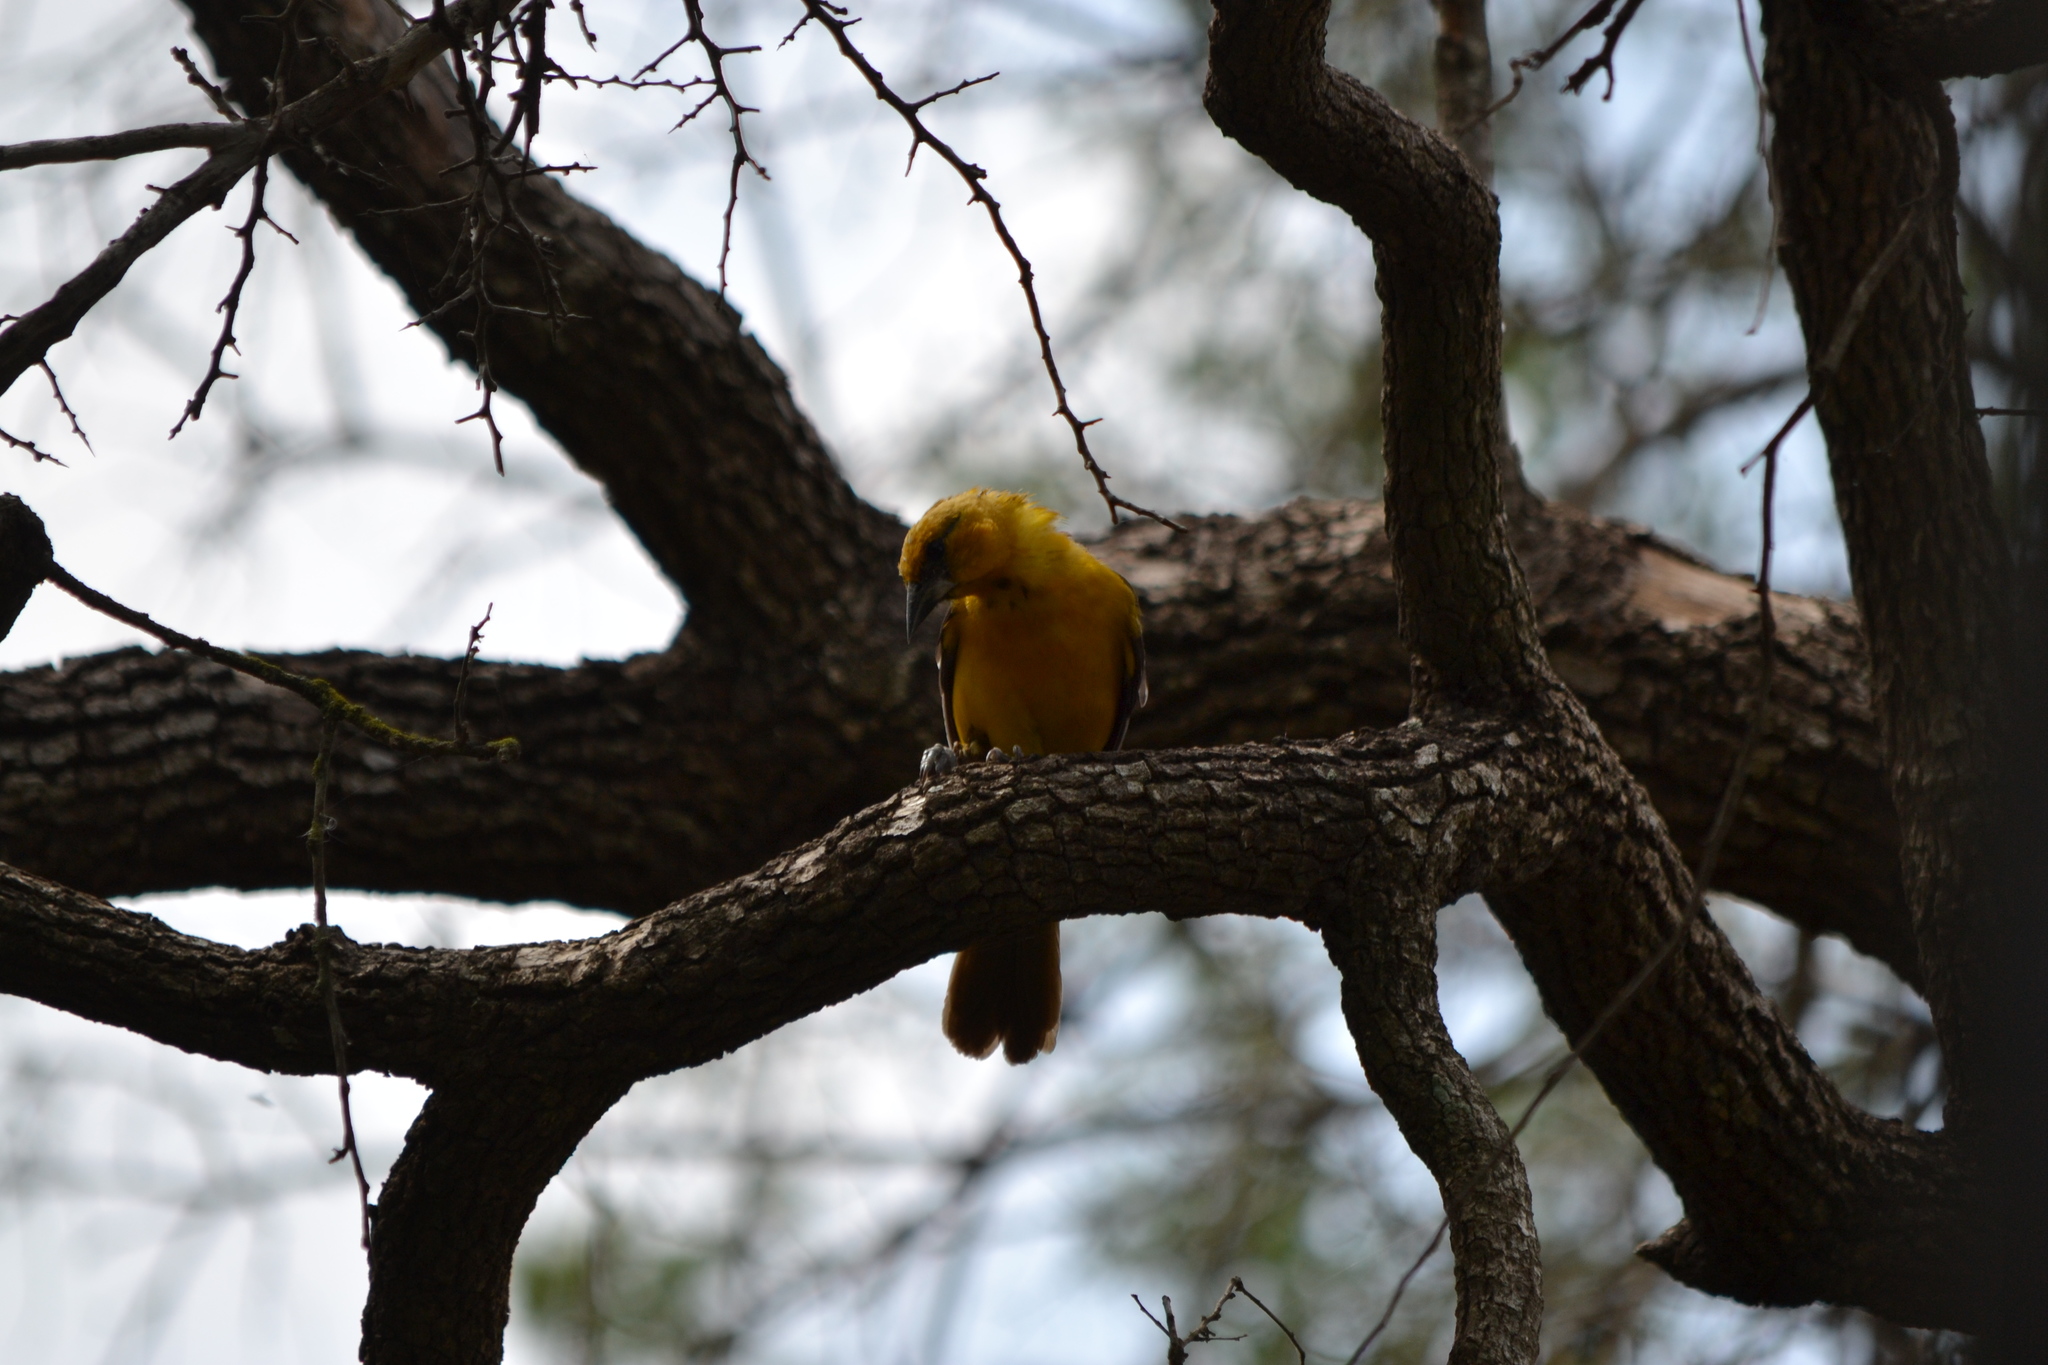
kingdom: Animalia
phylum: Chordata
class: Aves
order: Passeriformes
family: Icteridae
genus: Icterus
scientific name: Icterus gularis
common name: Altamira oriole
